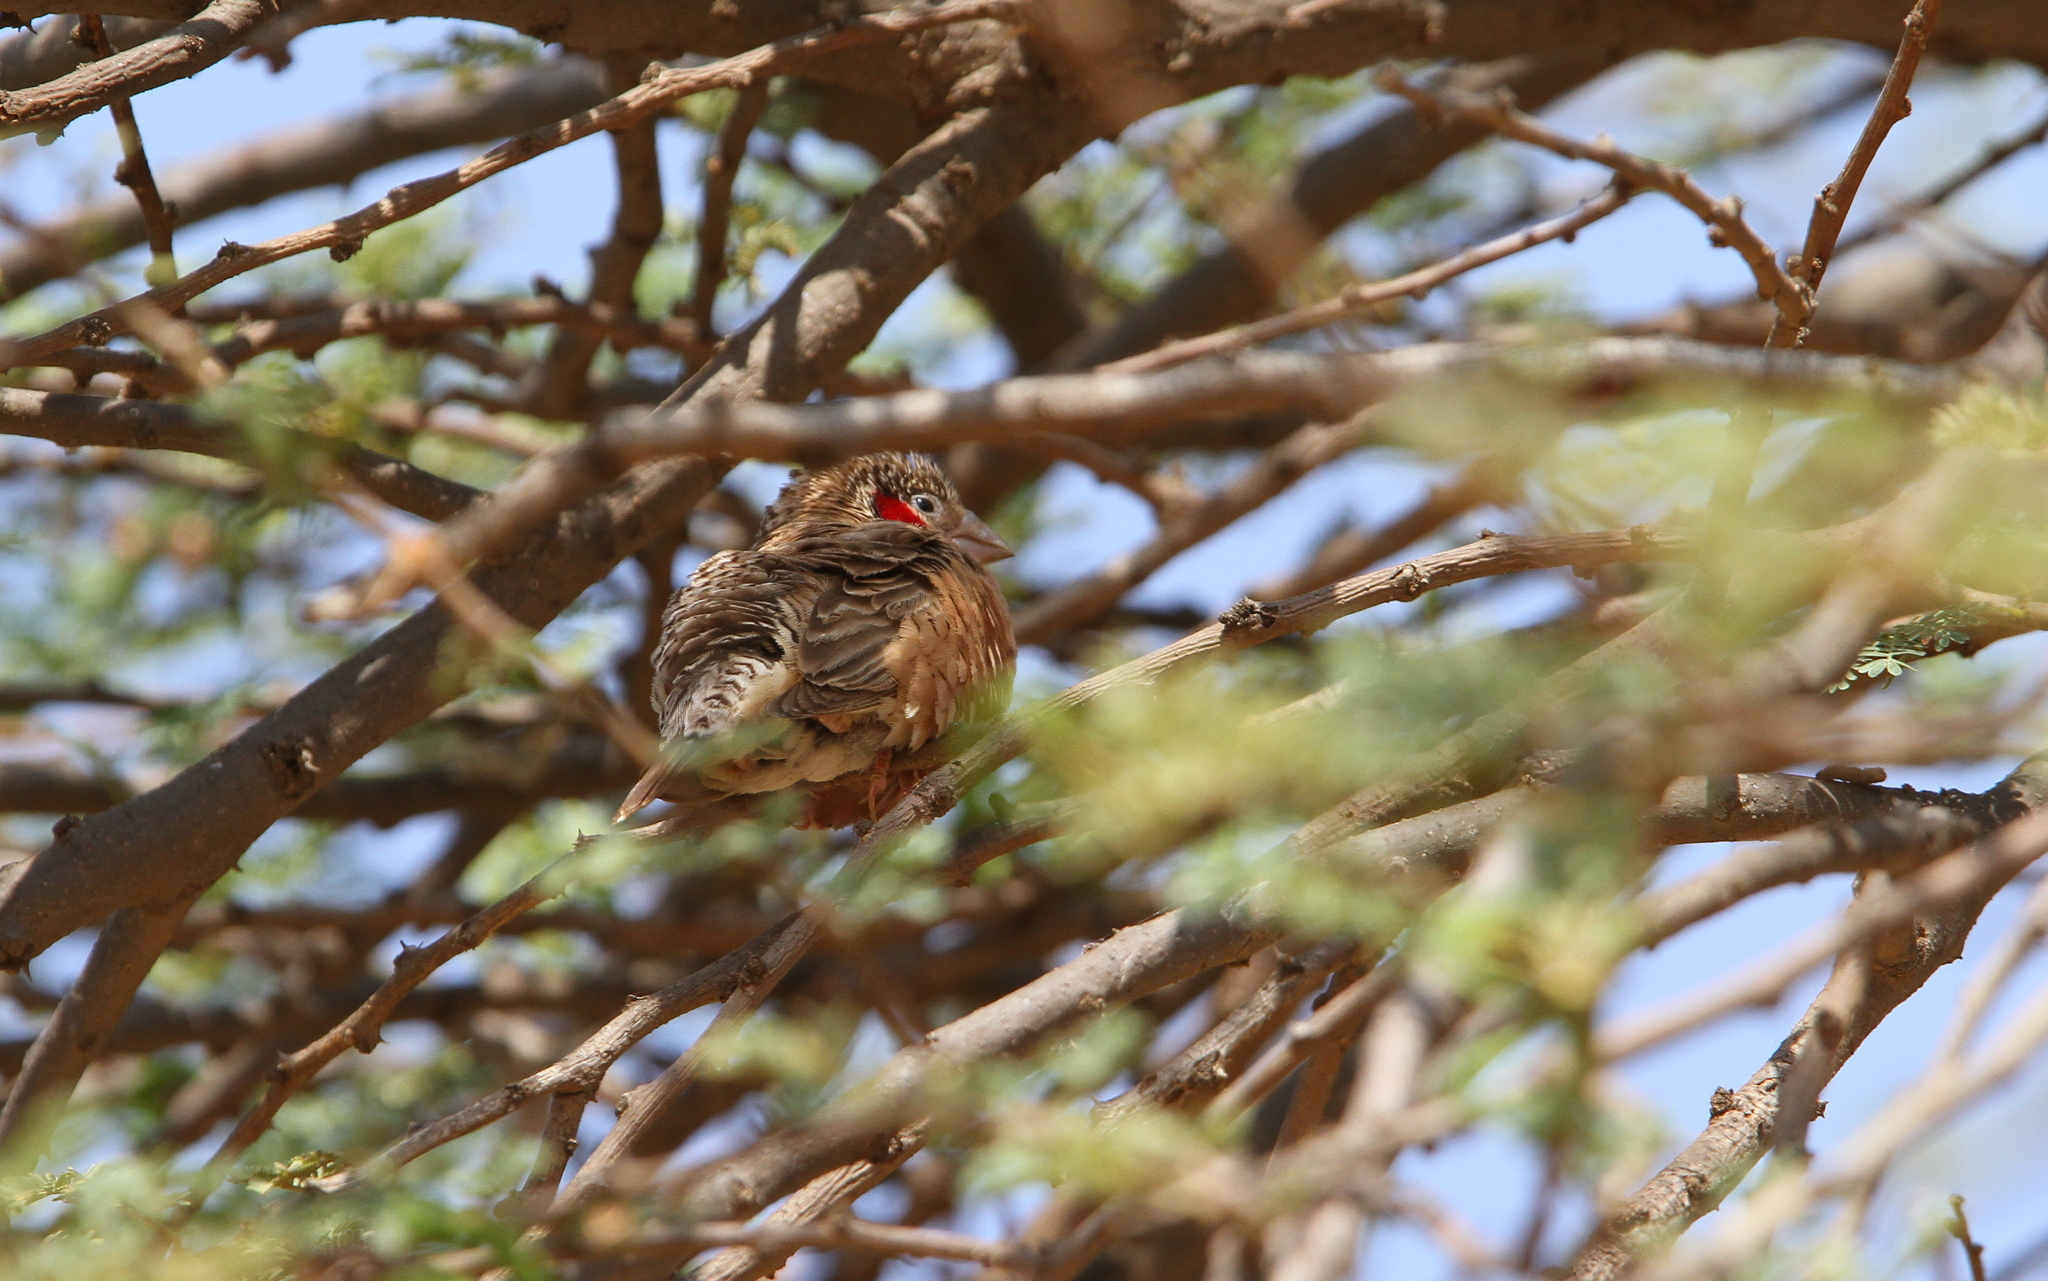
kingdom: Animalia
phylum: Chordata
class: Aves
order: Passeriformes
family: Estrildidae
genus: Amadina
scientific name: Amadina fasciata
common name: Cut-throat finch
